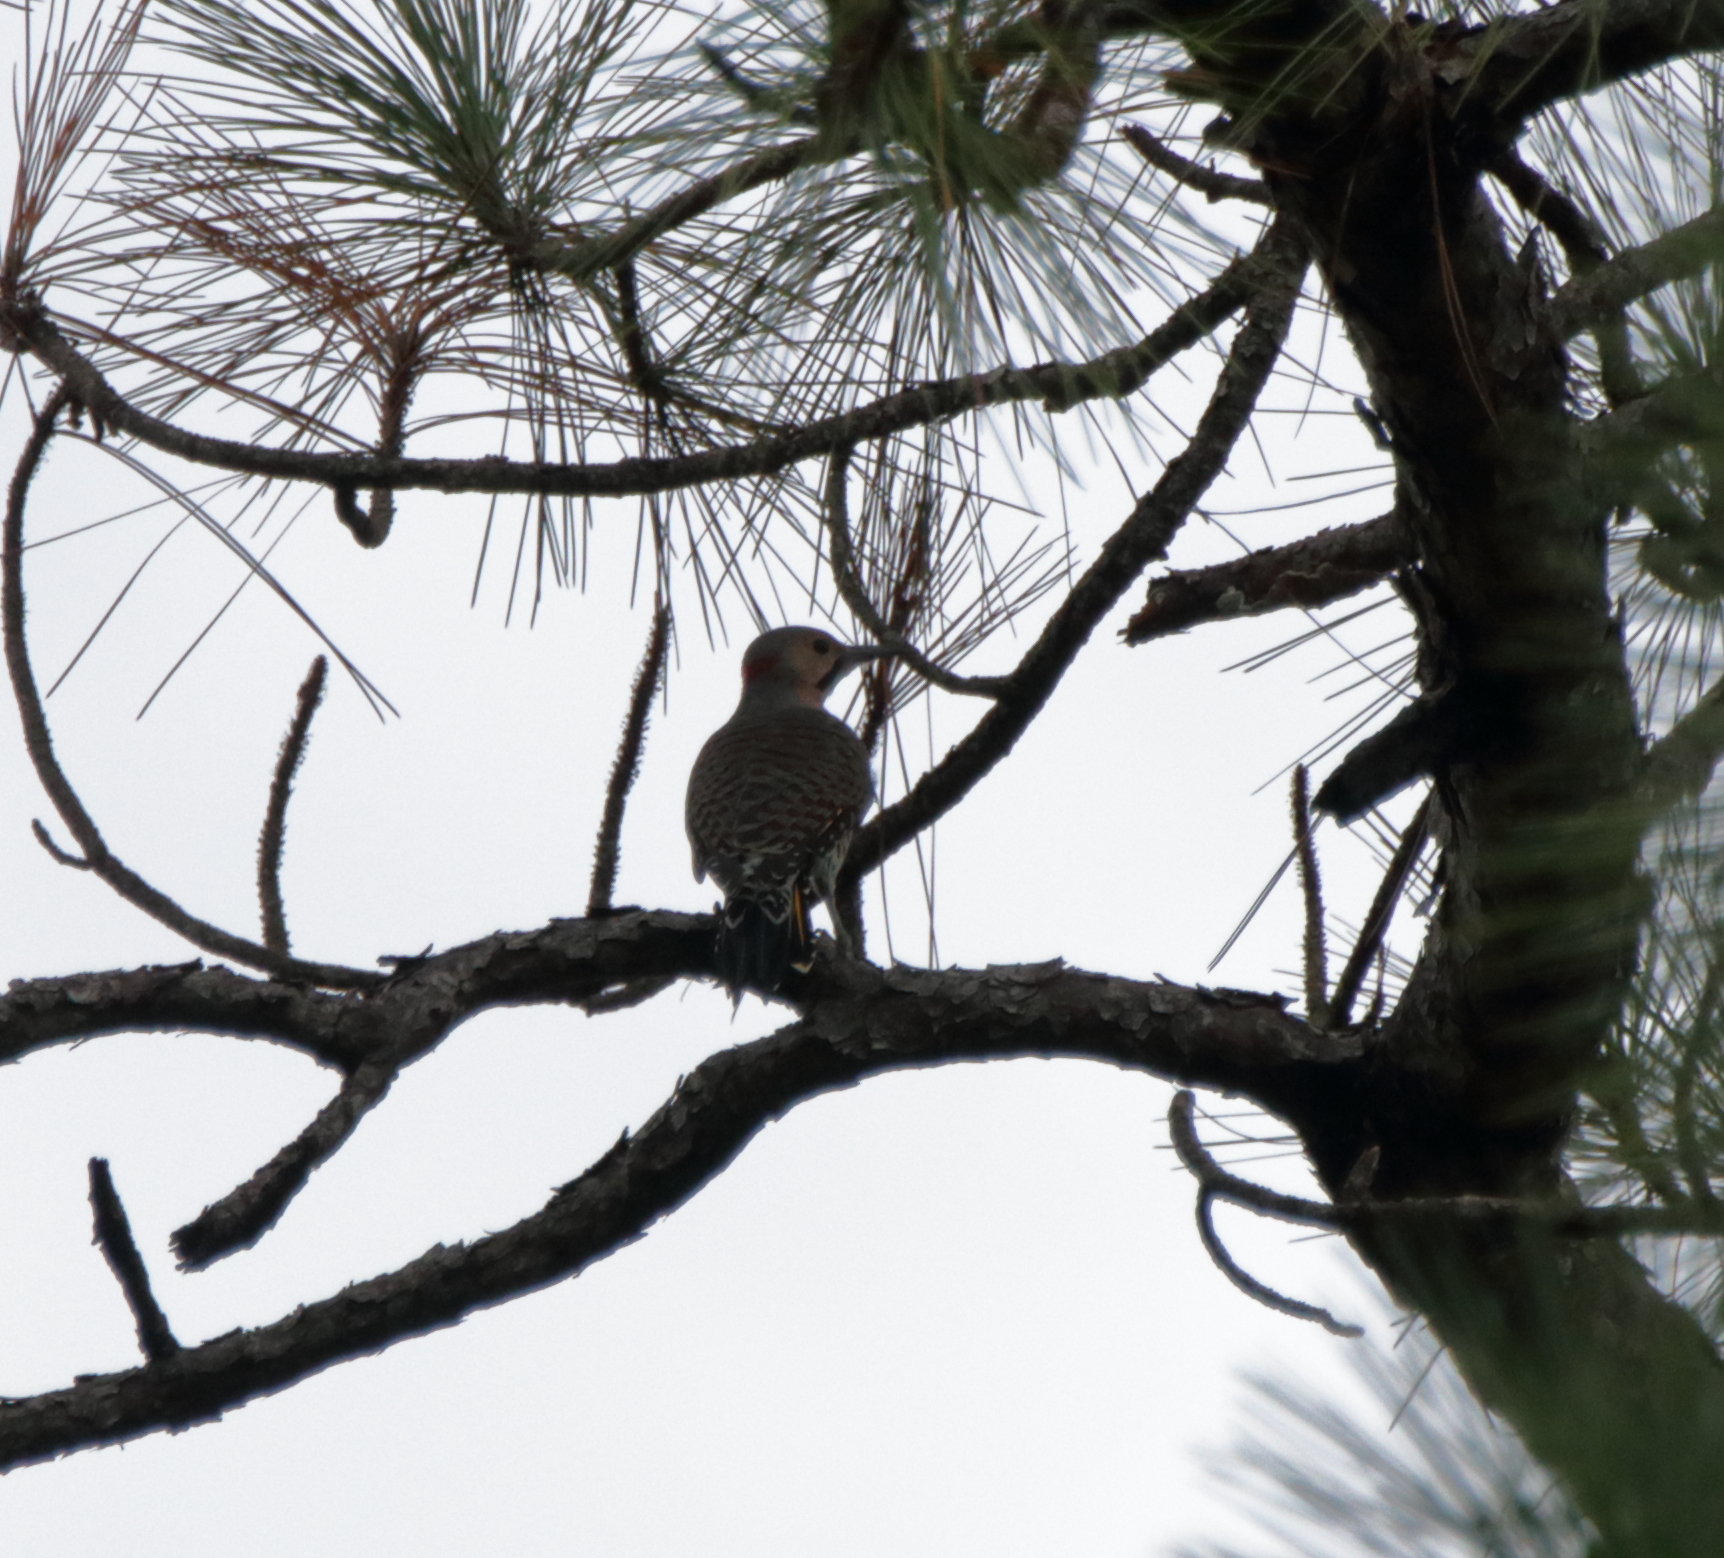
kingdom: Animalia
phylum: Chordata
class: Aves
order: Piciformes
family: Picidae
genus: Colaptes
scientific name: Colaptes auratus
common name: Northern flicker
